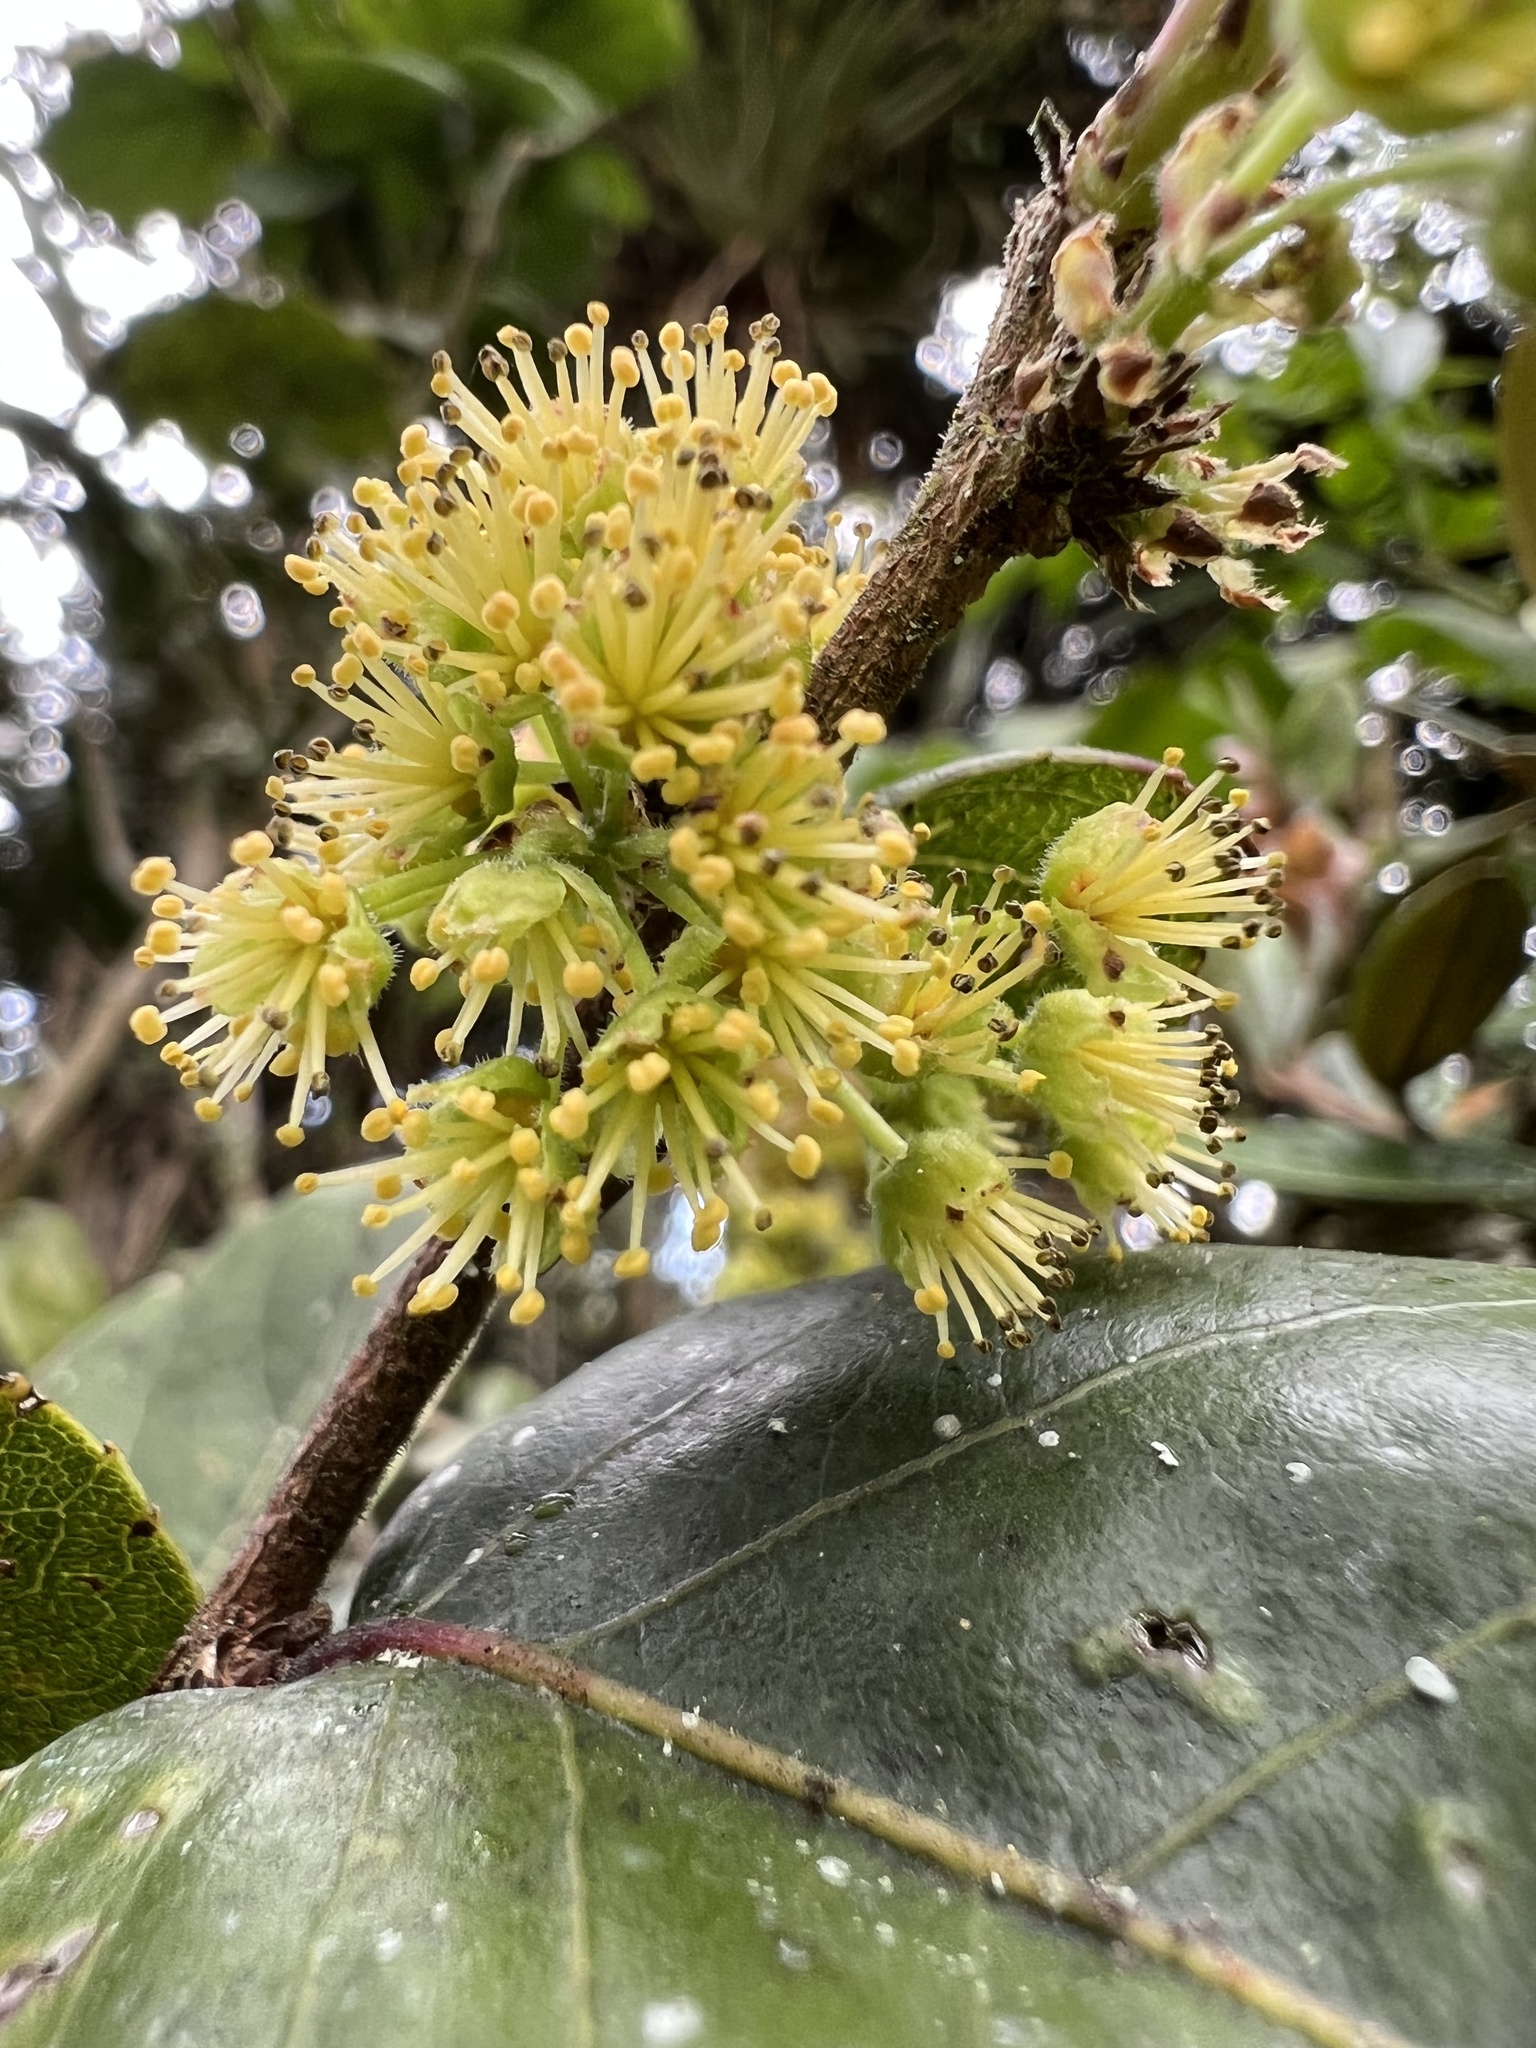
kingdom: Plantae
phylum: Tracheophyta
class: Magnoliopsida
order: Malpighiales
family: Salicaceae
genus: Xylosma
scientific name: Xylosma spiculifera
